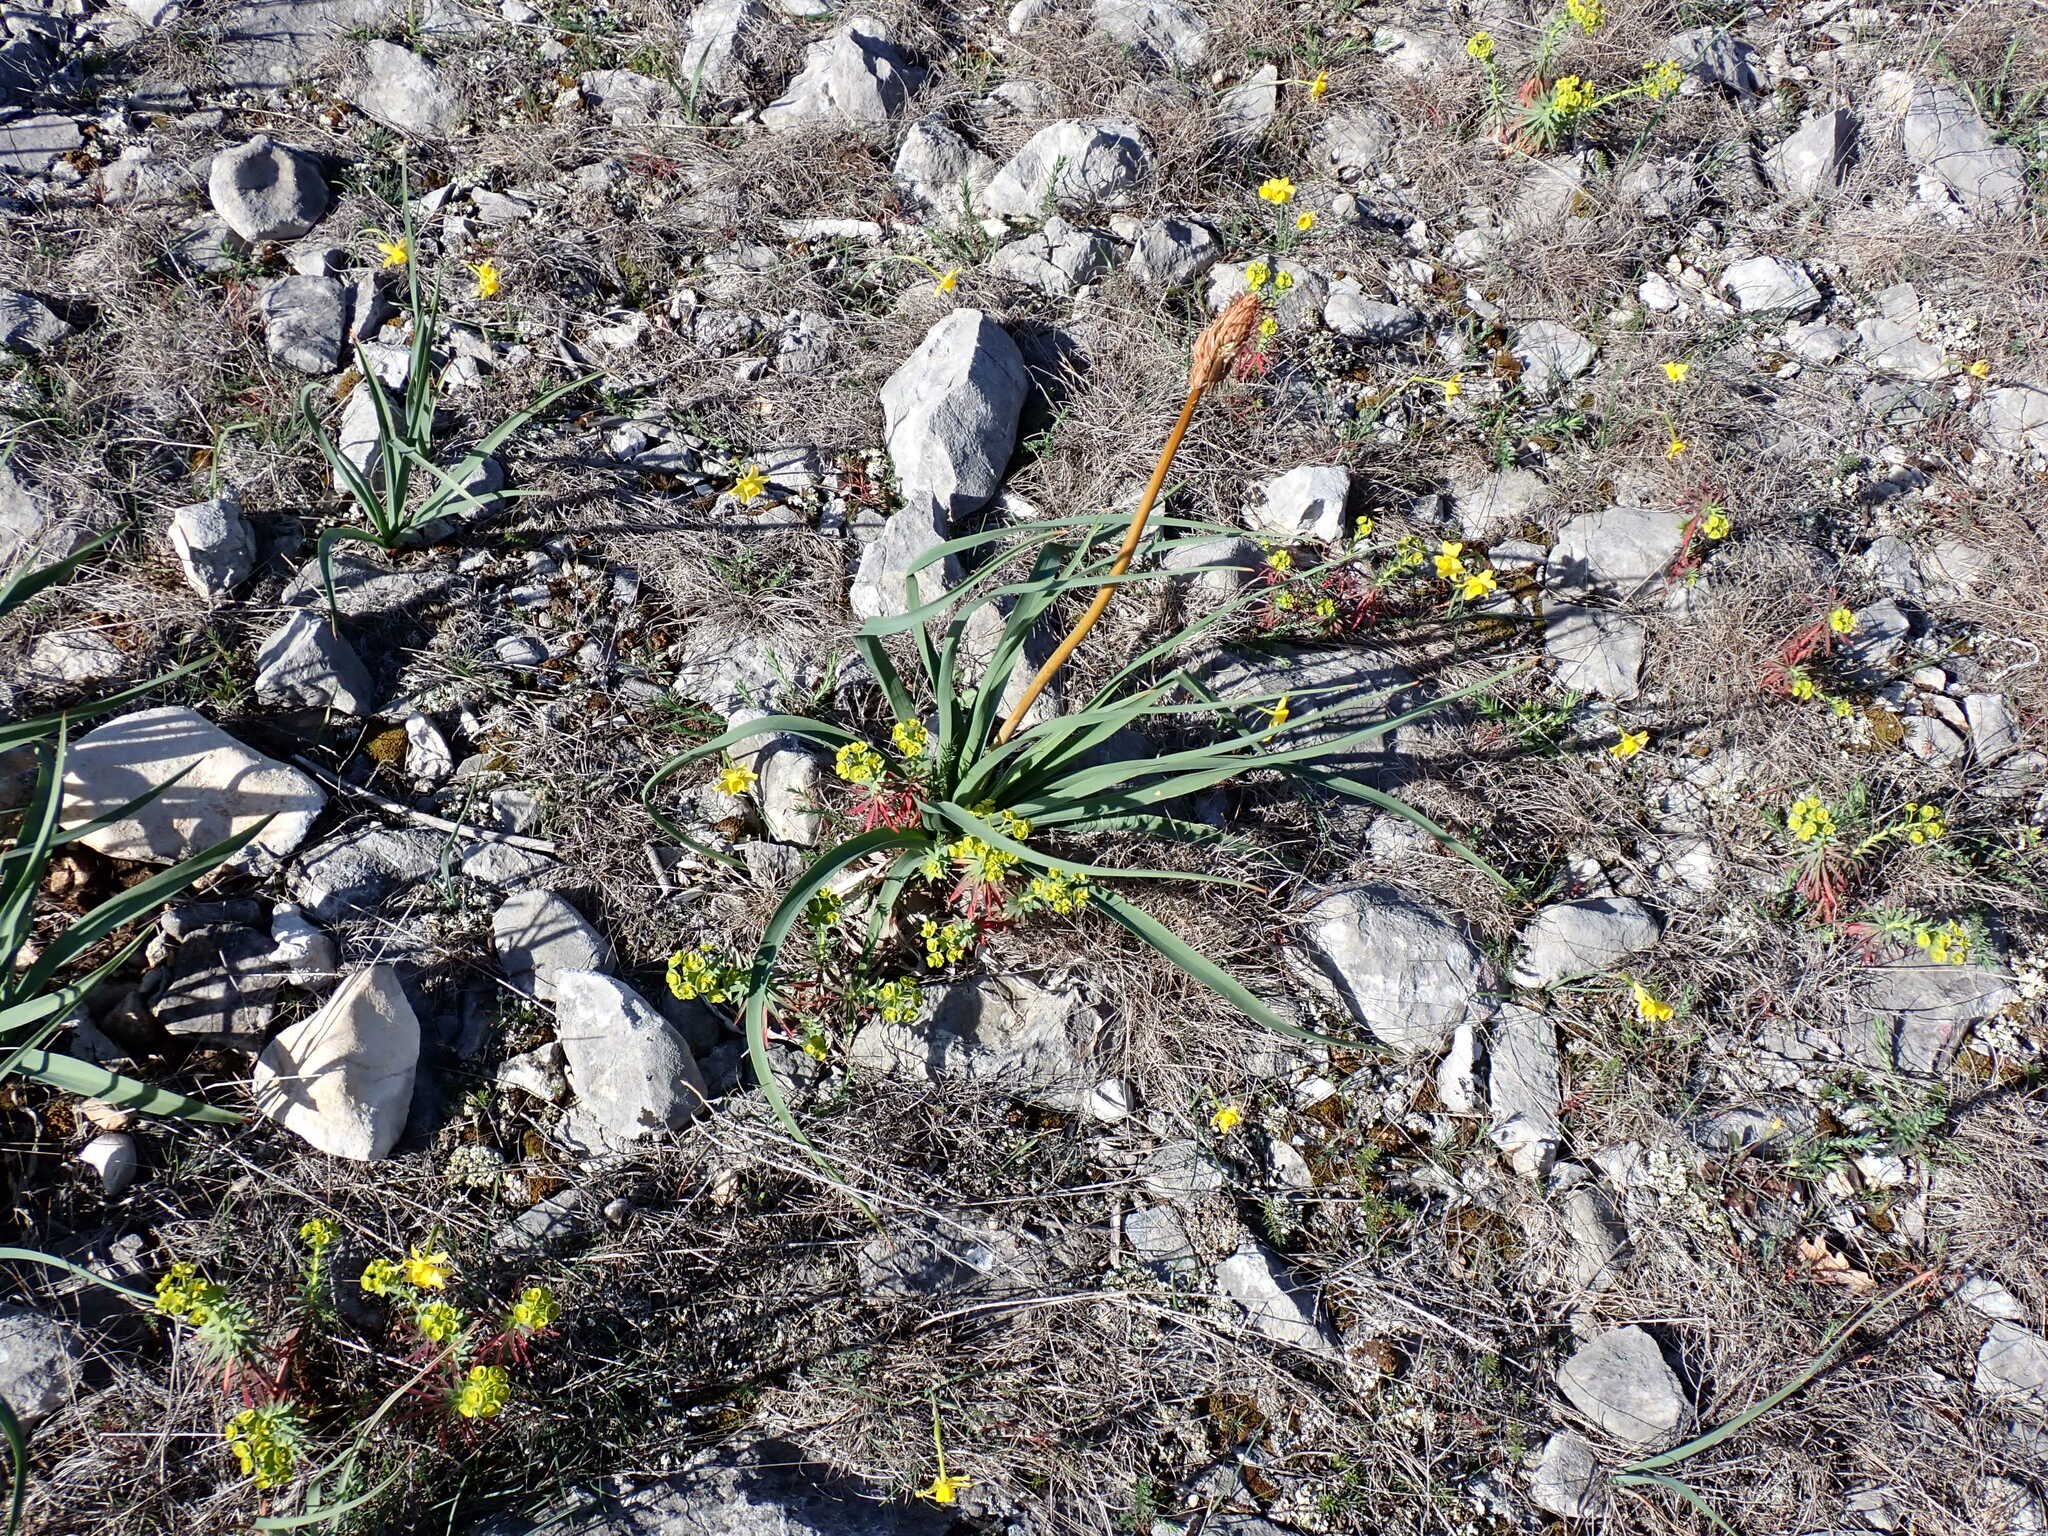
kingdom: Plantae
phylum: Tracheophyta
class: Liliopsida
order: Asparagales
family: Asphodelaceae
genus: Asphodelus
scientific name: Asphodelus cerasifer
